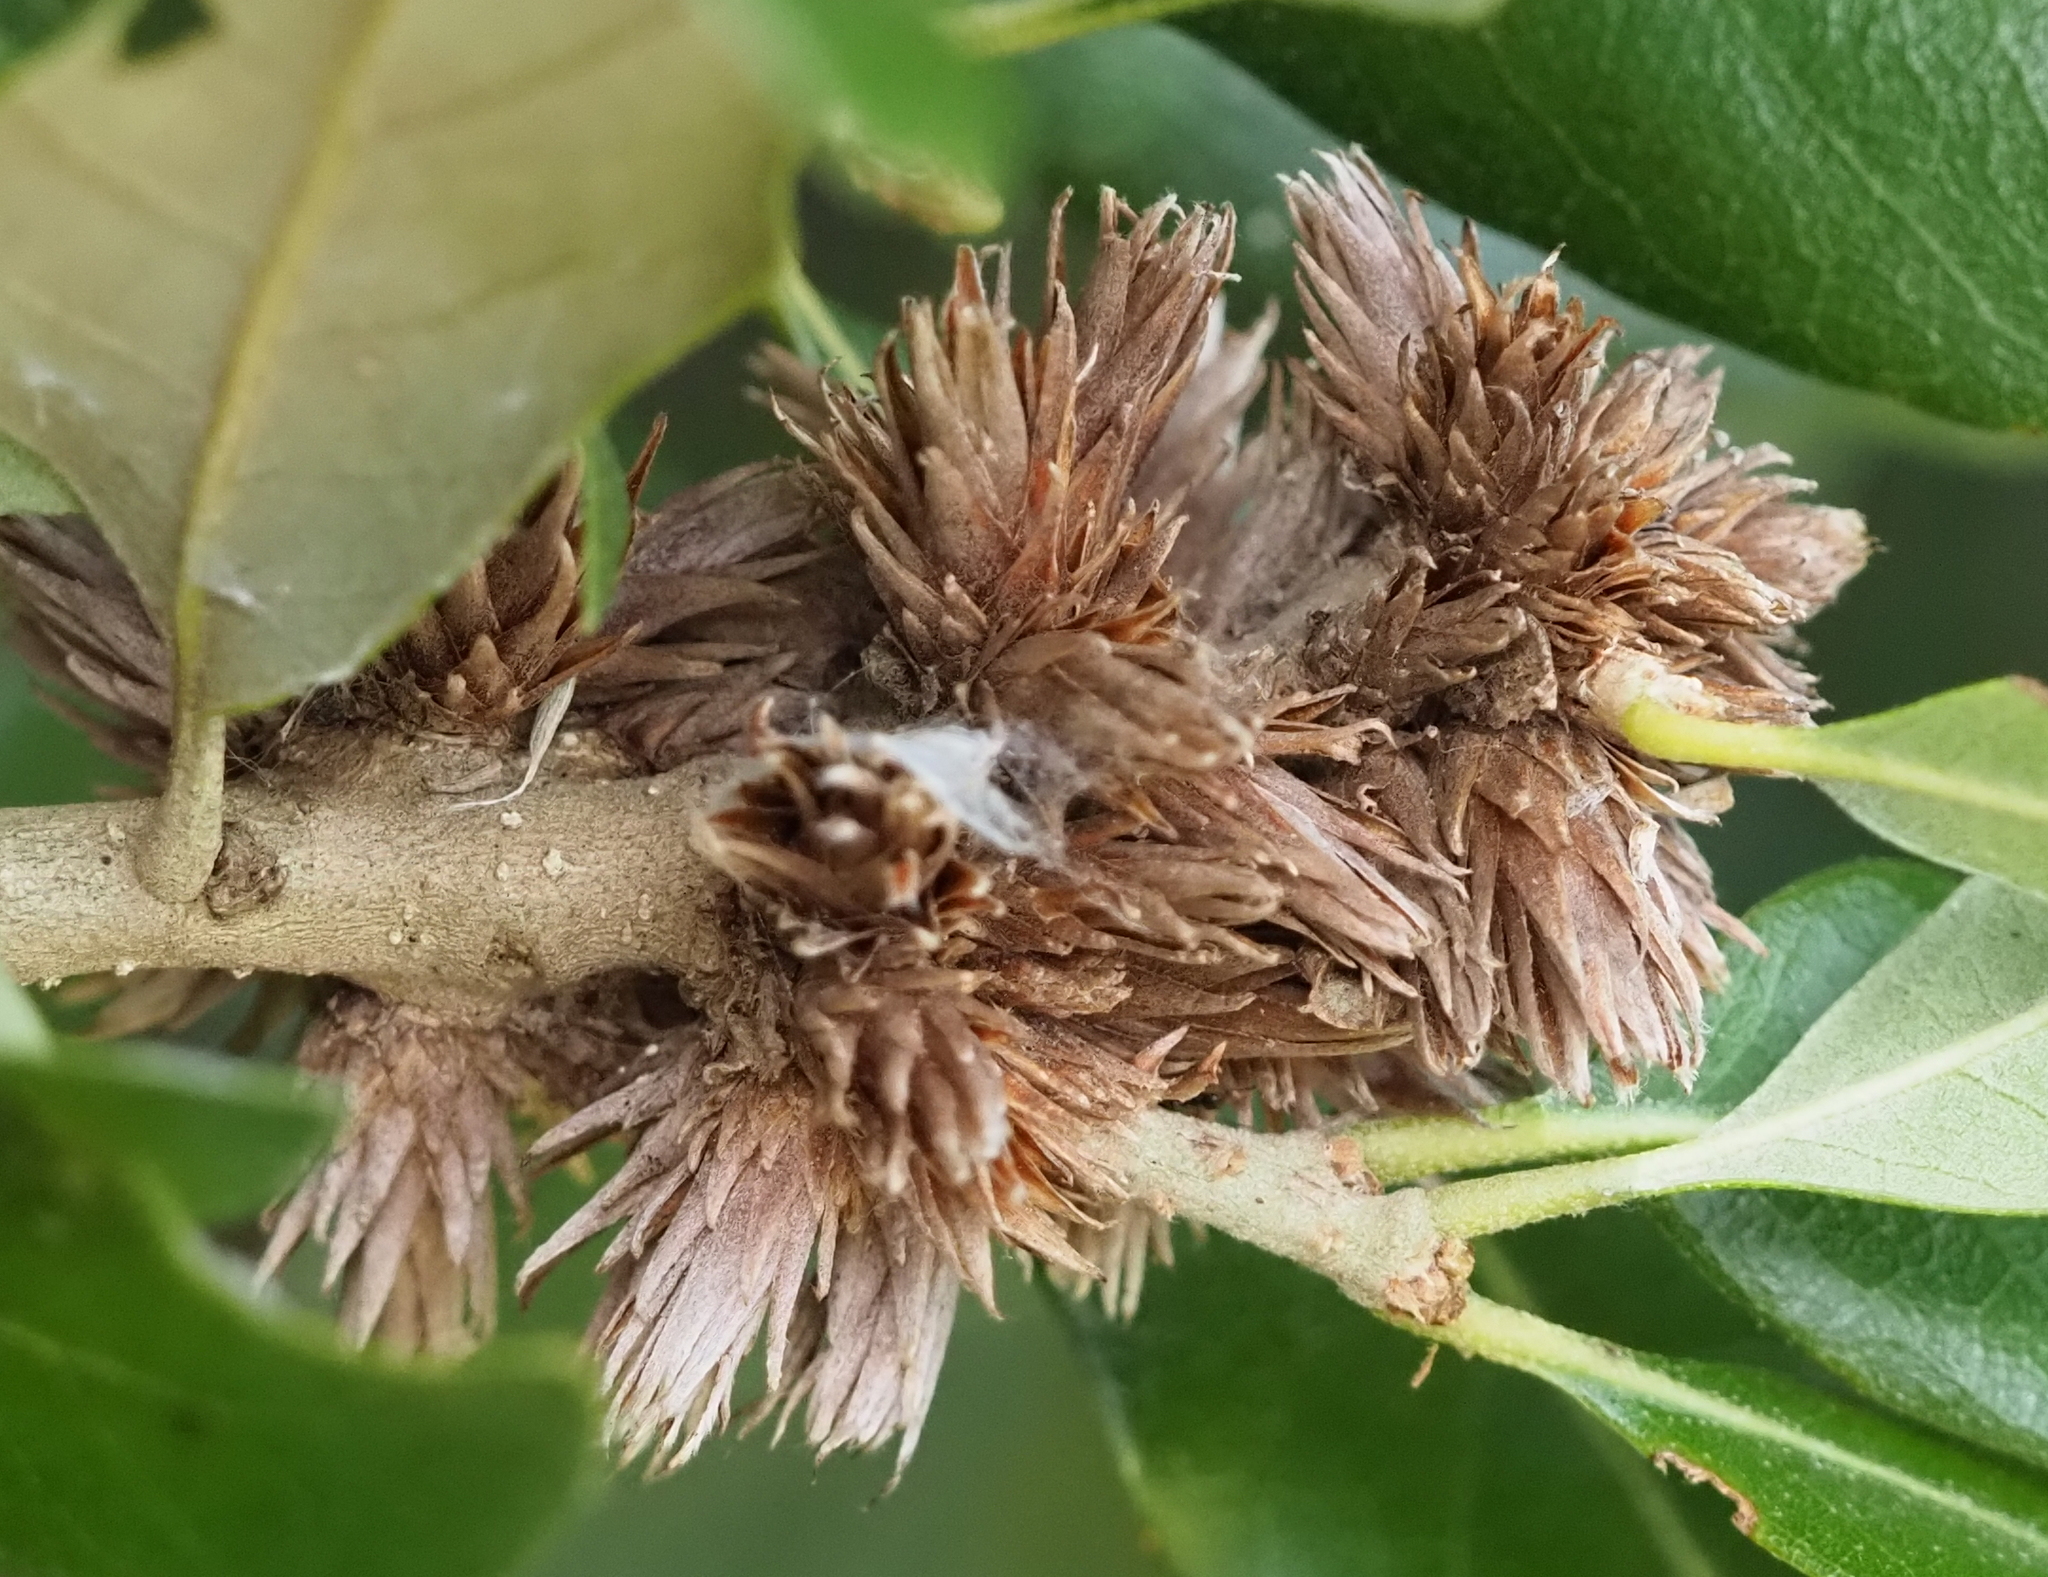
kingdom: Animalia
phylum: Arthropoda
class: Insecta
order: Diptera
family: Cecidomyiidae
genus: Arnoldiola
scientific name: Arnoldiola atra
